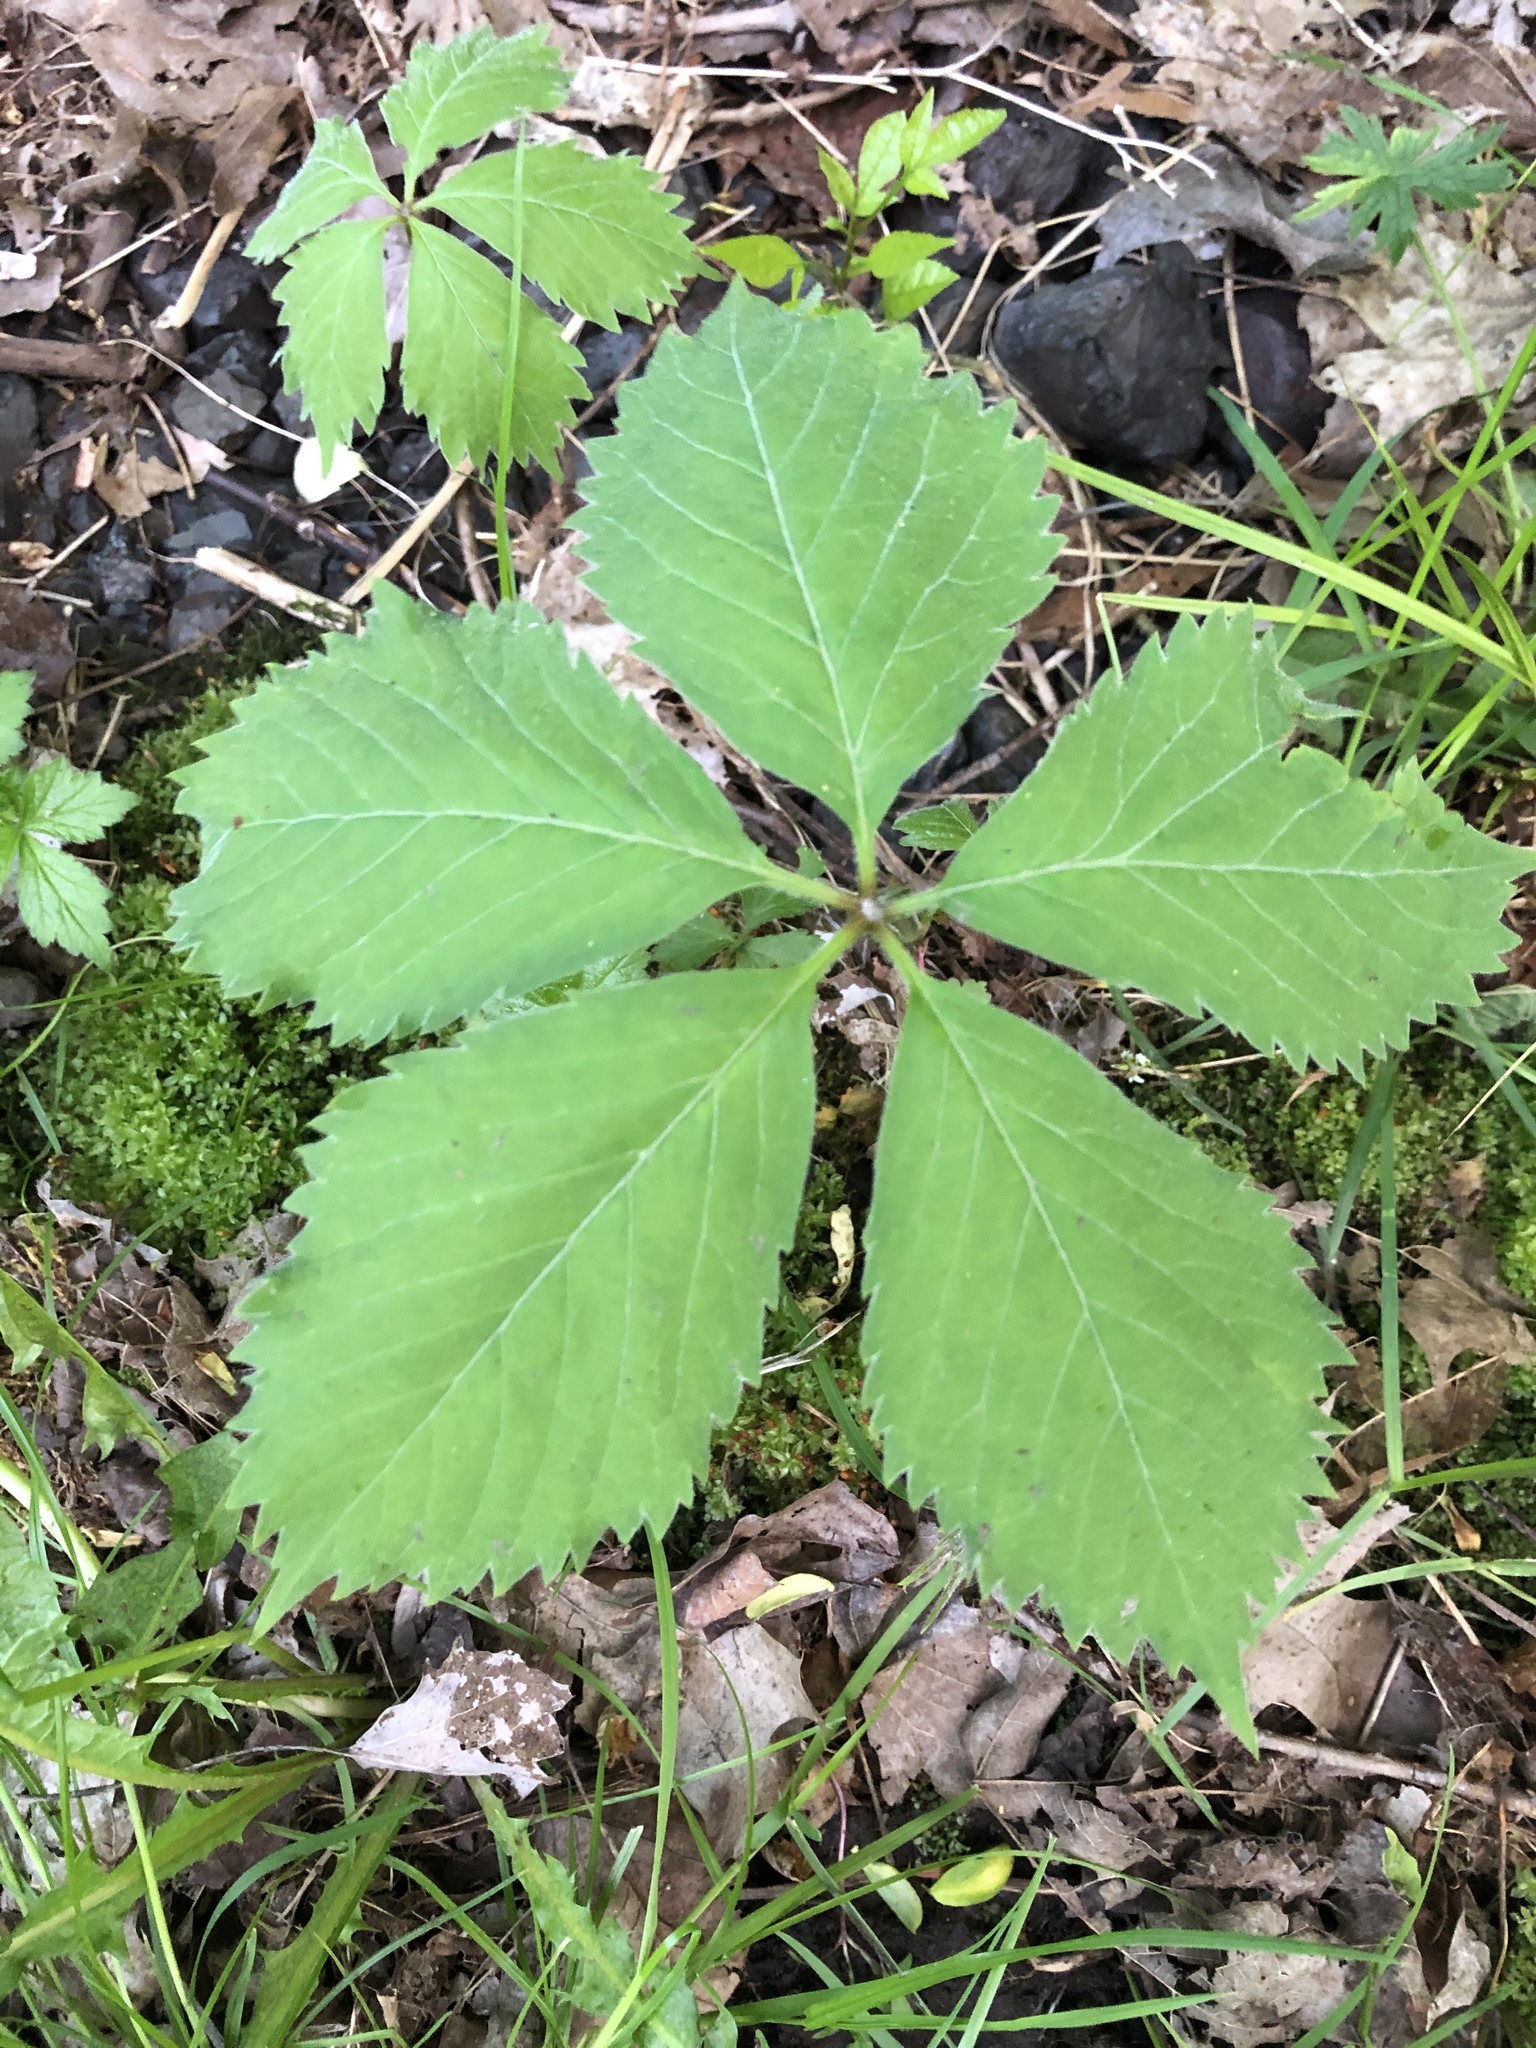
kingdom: Plantae
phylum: Tracheophyta
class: Magnoliopsida
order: Vitales
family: Vitaceae
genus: Parthenocissus
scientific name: Parthenocissus inserta
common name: False virginia-creeper
